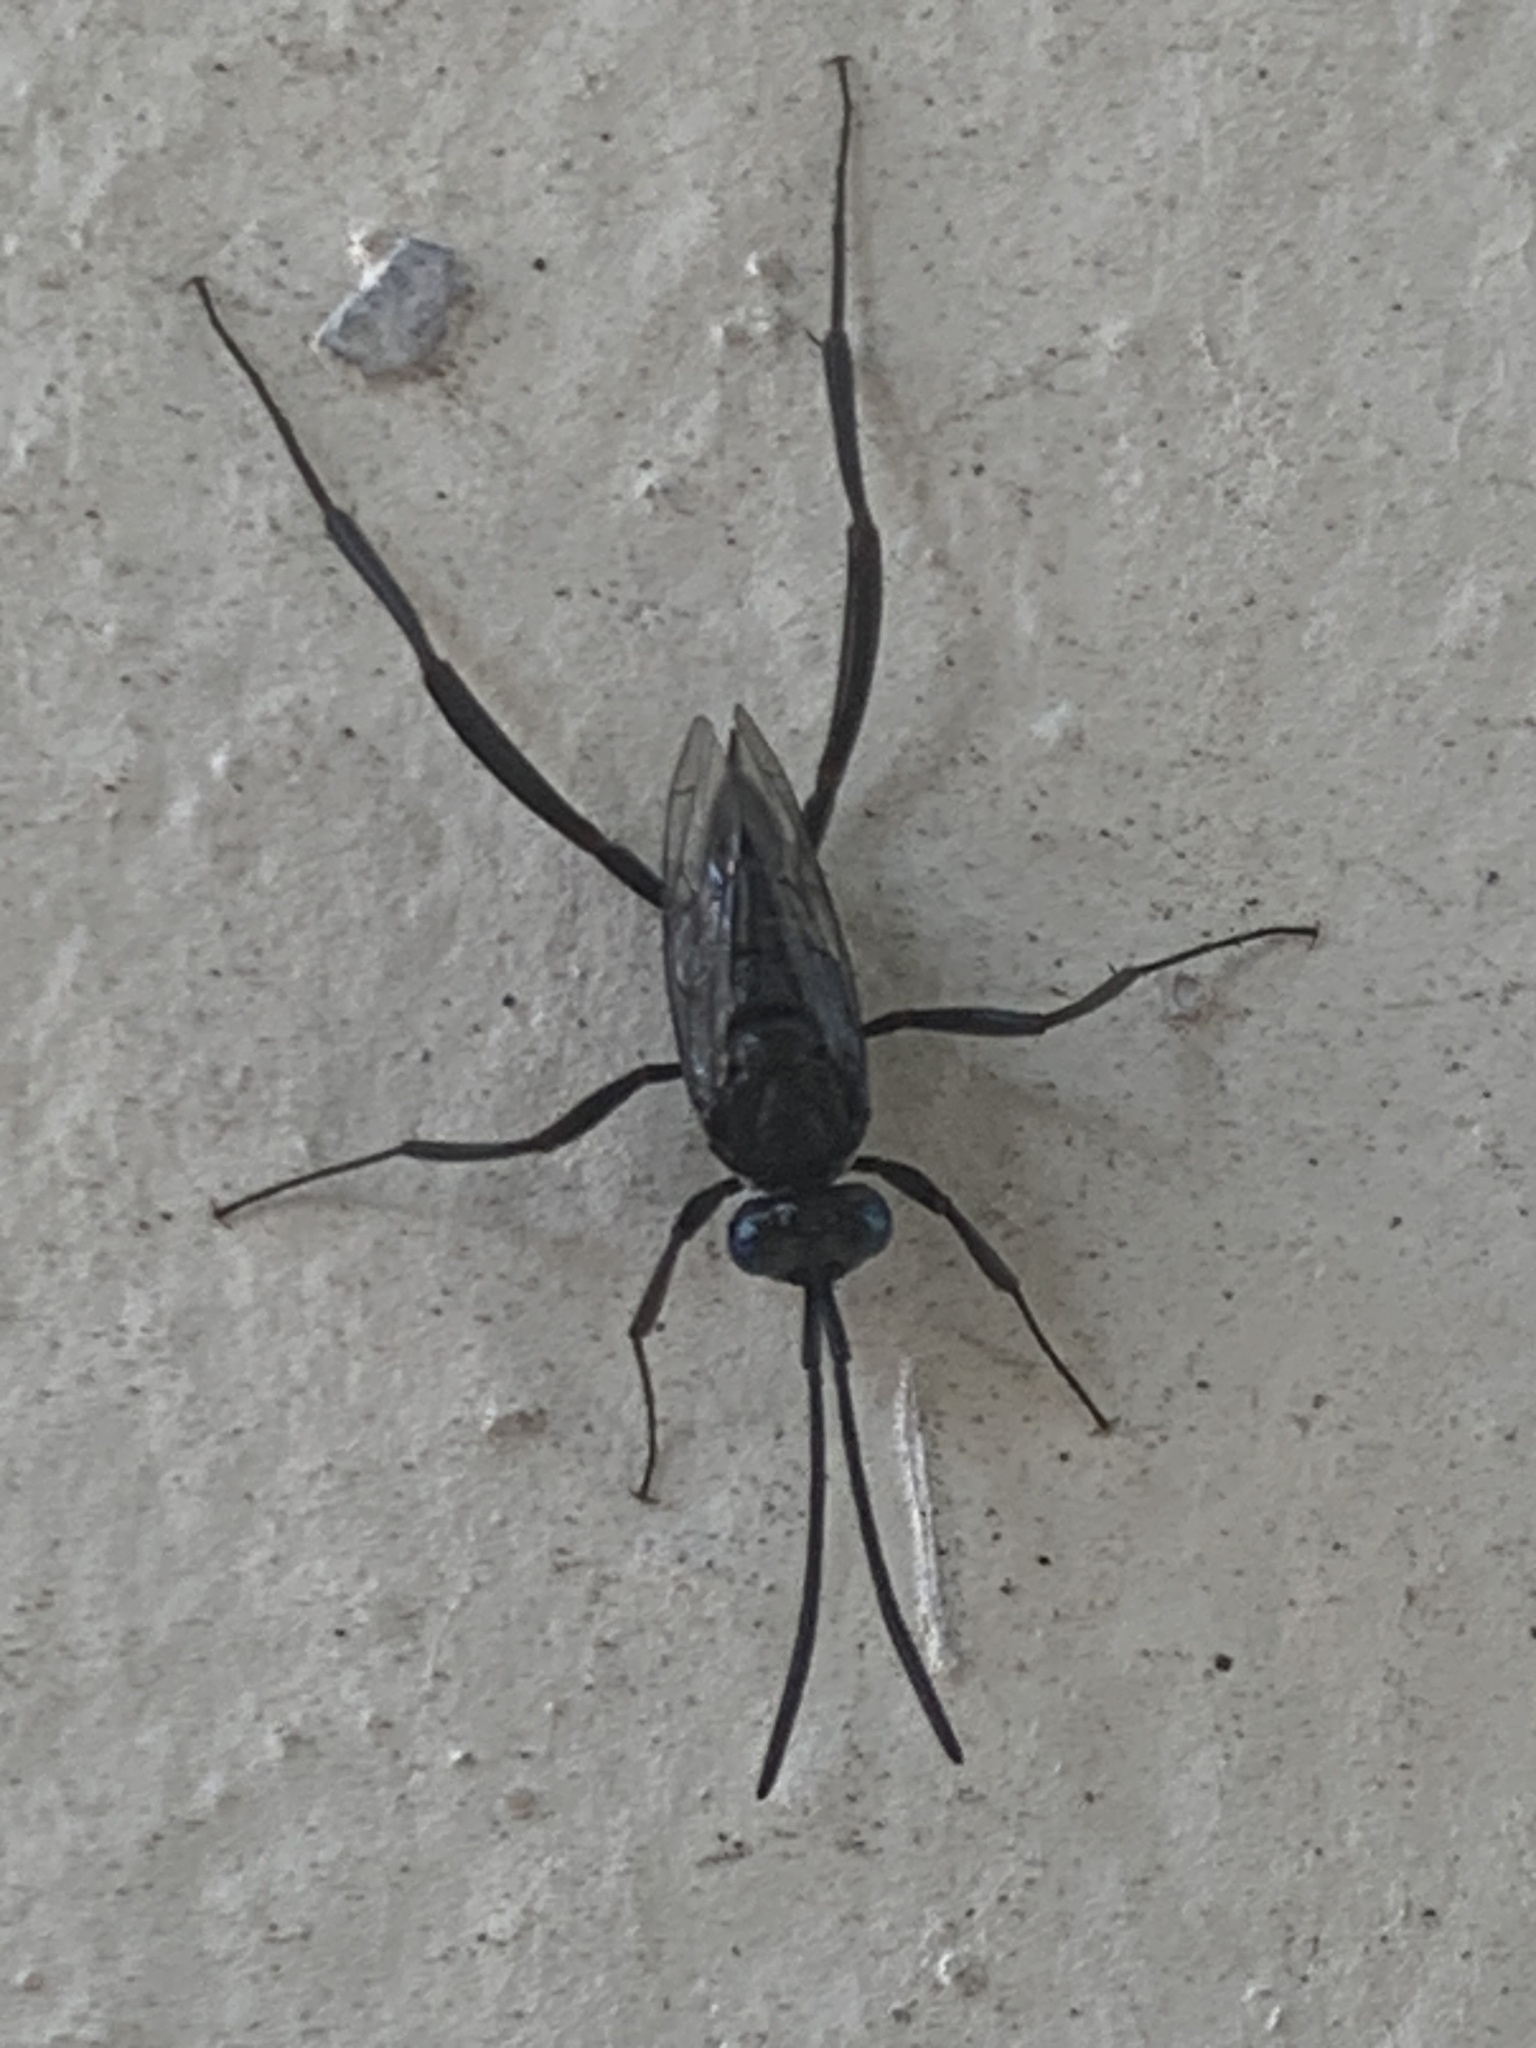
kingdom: Animalia
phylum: Arthropoda
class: Insecta
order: Hymenoptera
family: Evaniidae
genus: Evania
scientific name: Evania appendigaster
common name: Ensign wasp
